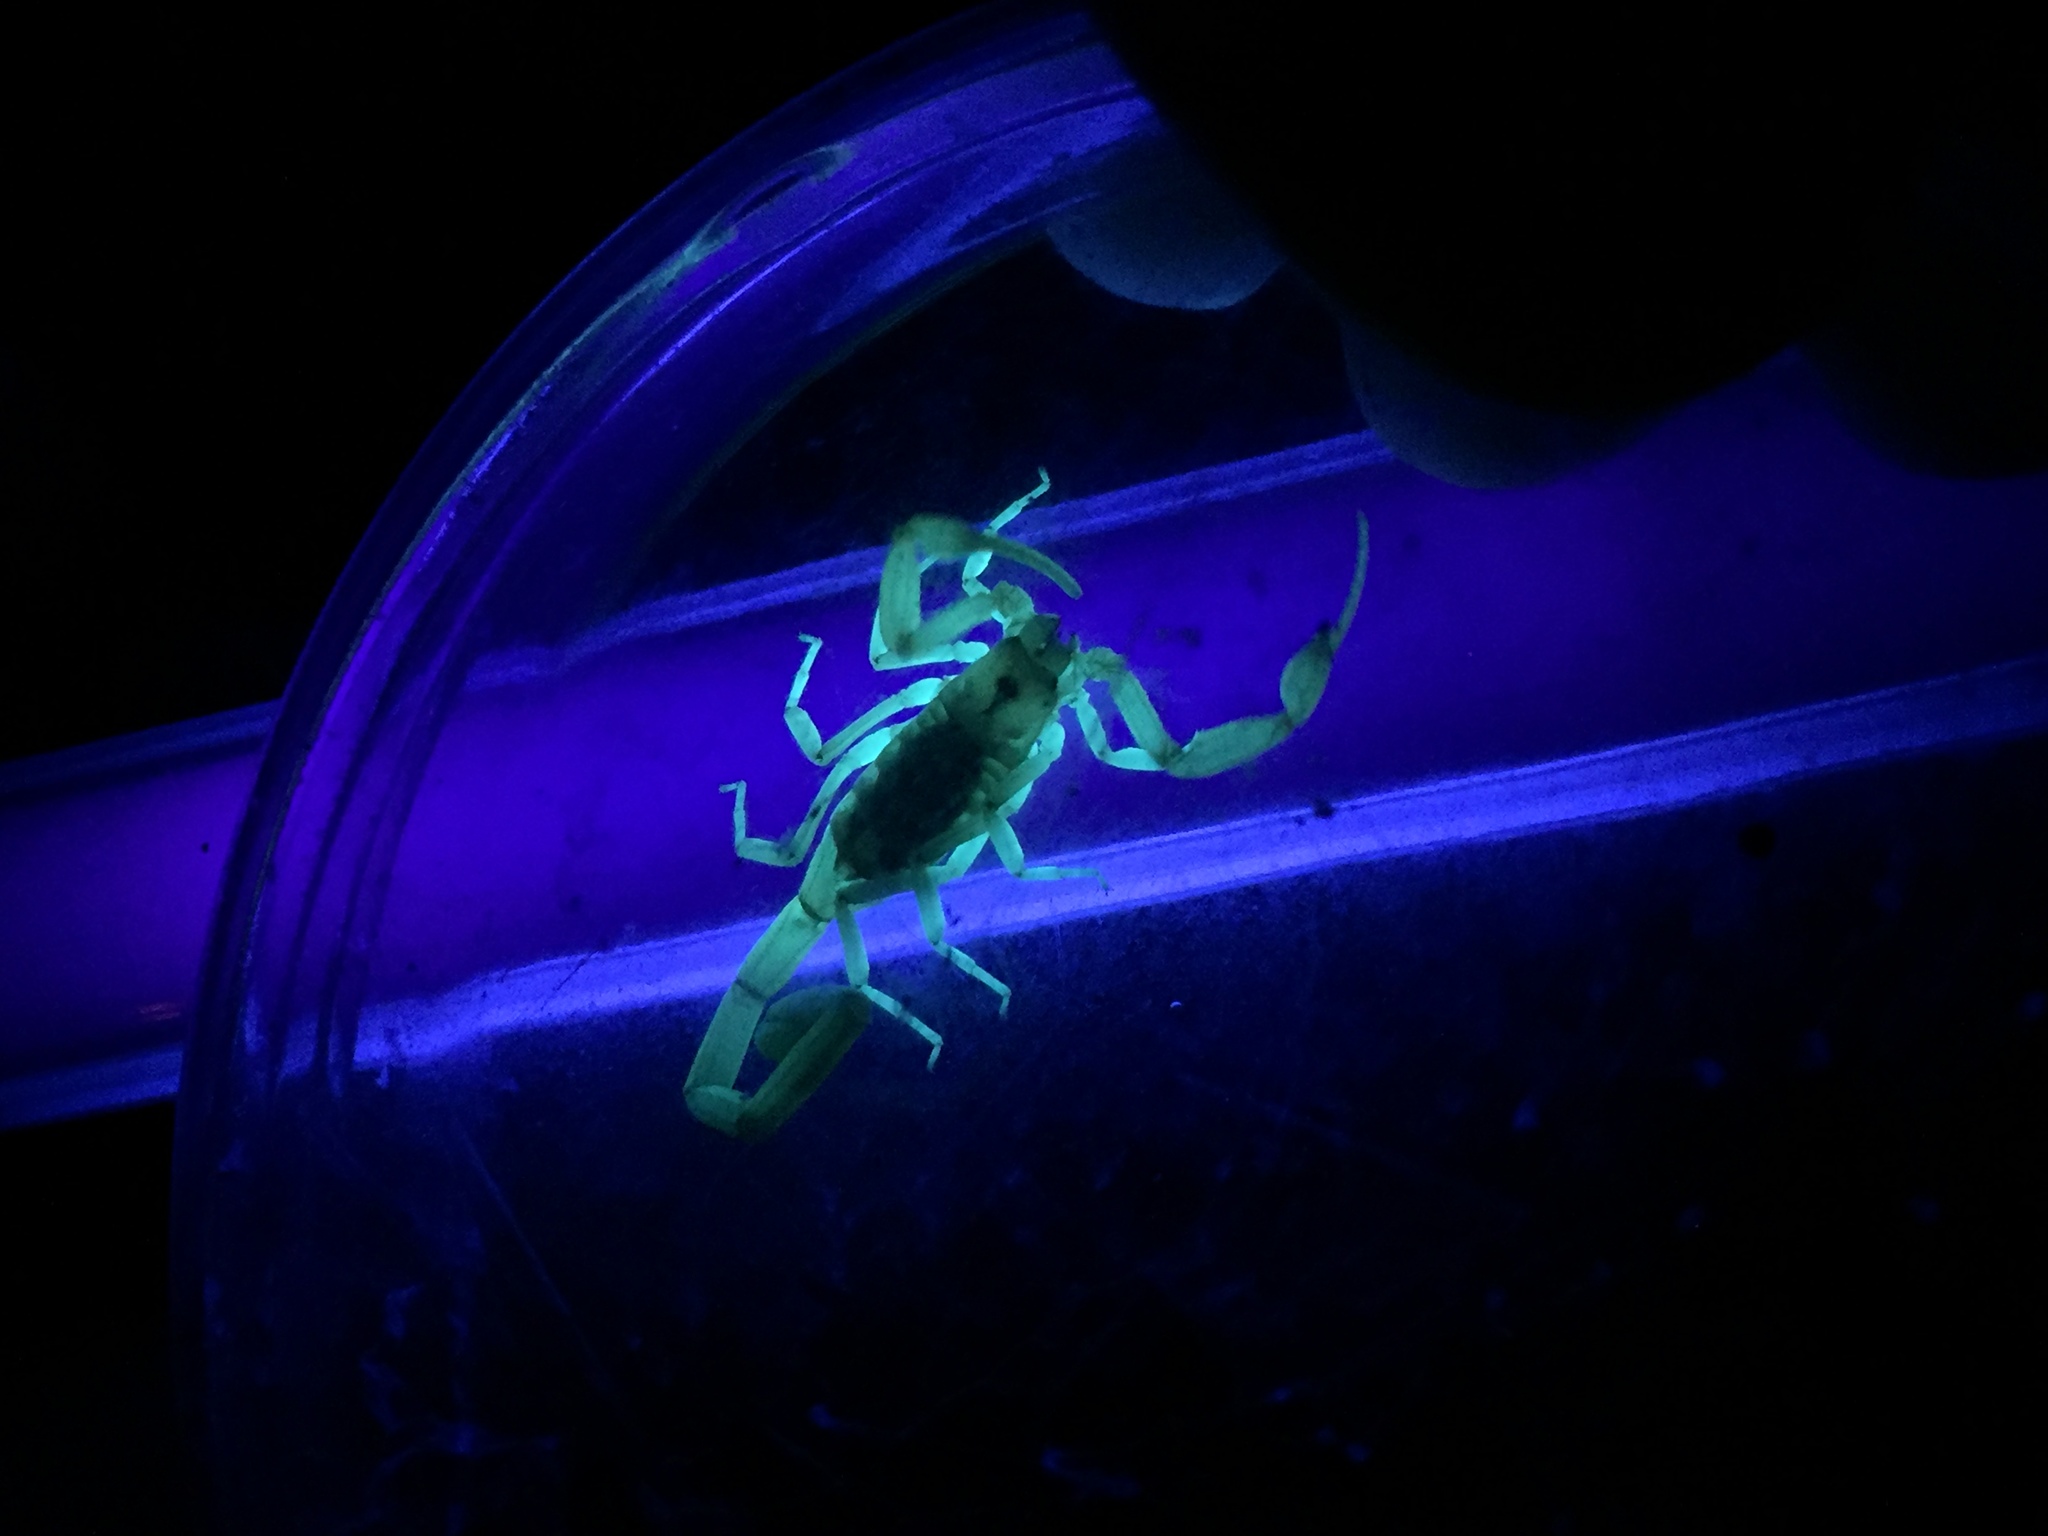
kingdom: Animalia
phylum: Arthropoda
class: Arachnida
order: Scorpiones
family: Buthidae
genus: Centruroides
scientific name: Centruroides exilicauda
